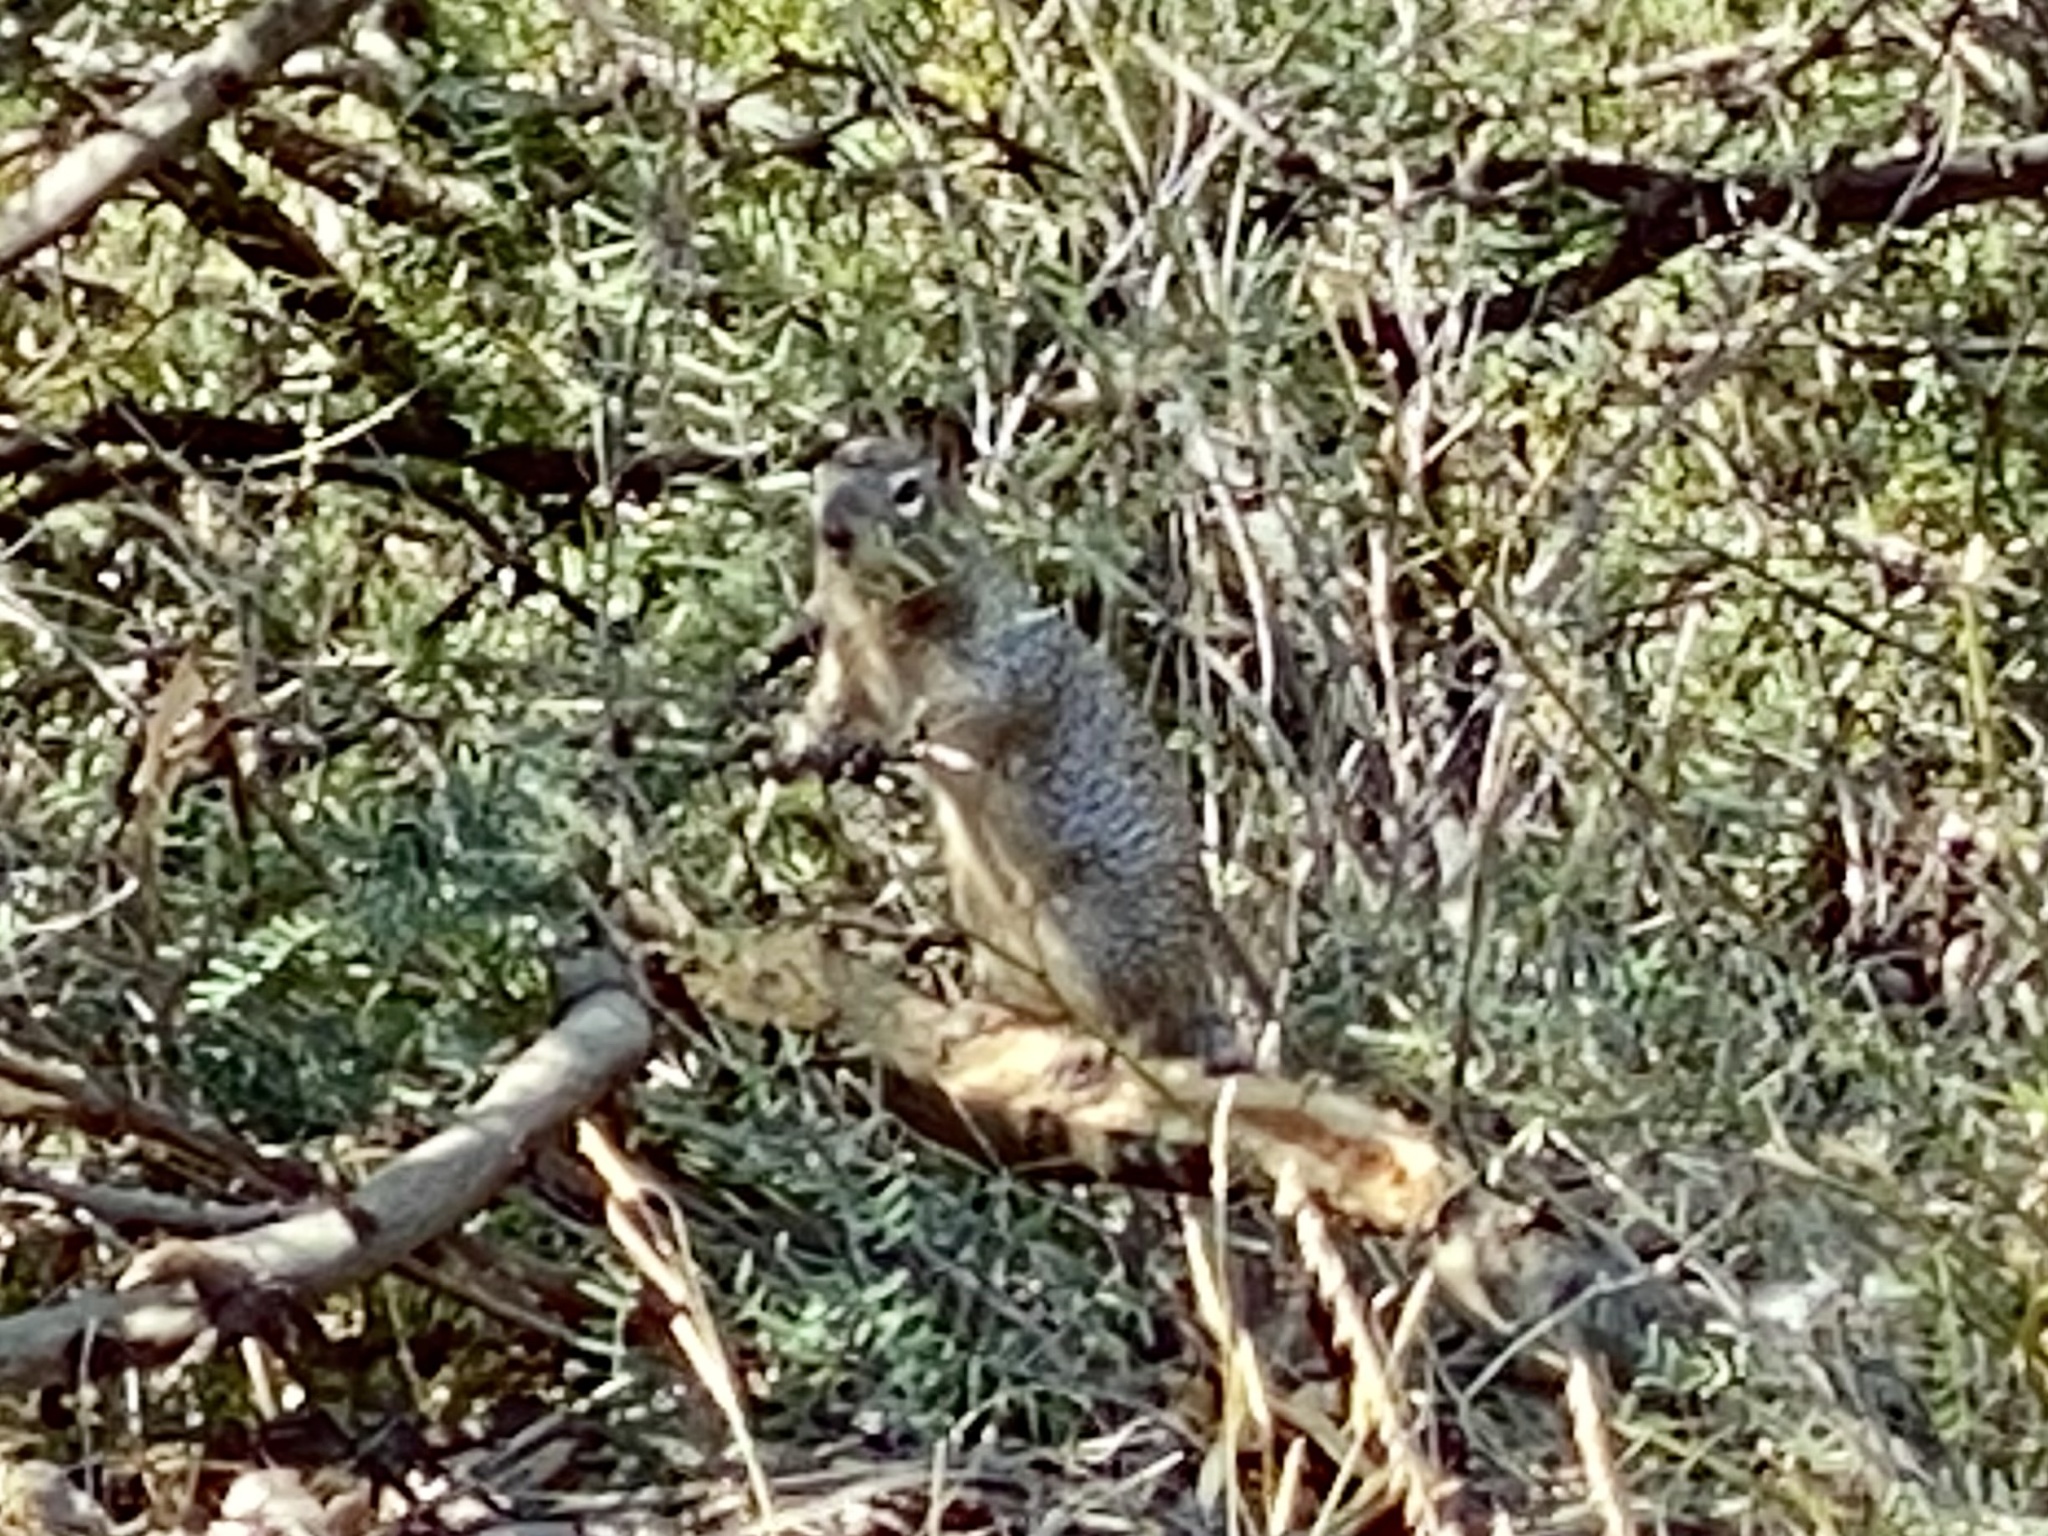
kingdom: Animalia
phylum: Chordata
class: Mammalia
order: Rodentia
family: Sciuridae
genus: Otospermophilus
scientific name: Otospermophilus variegatus
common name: Rock squirrel
